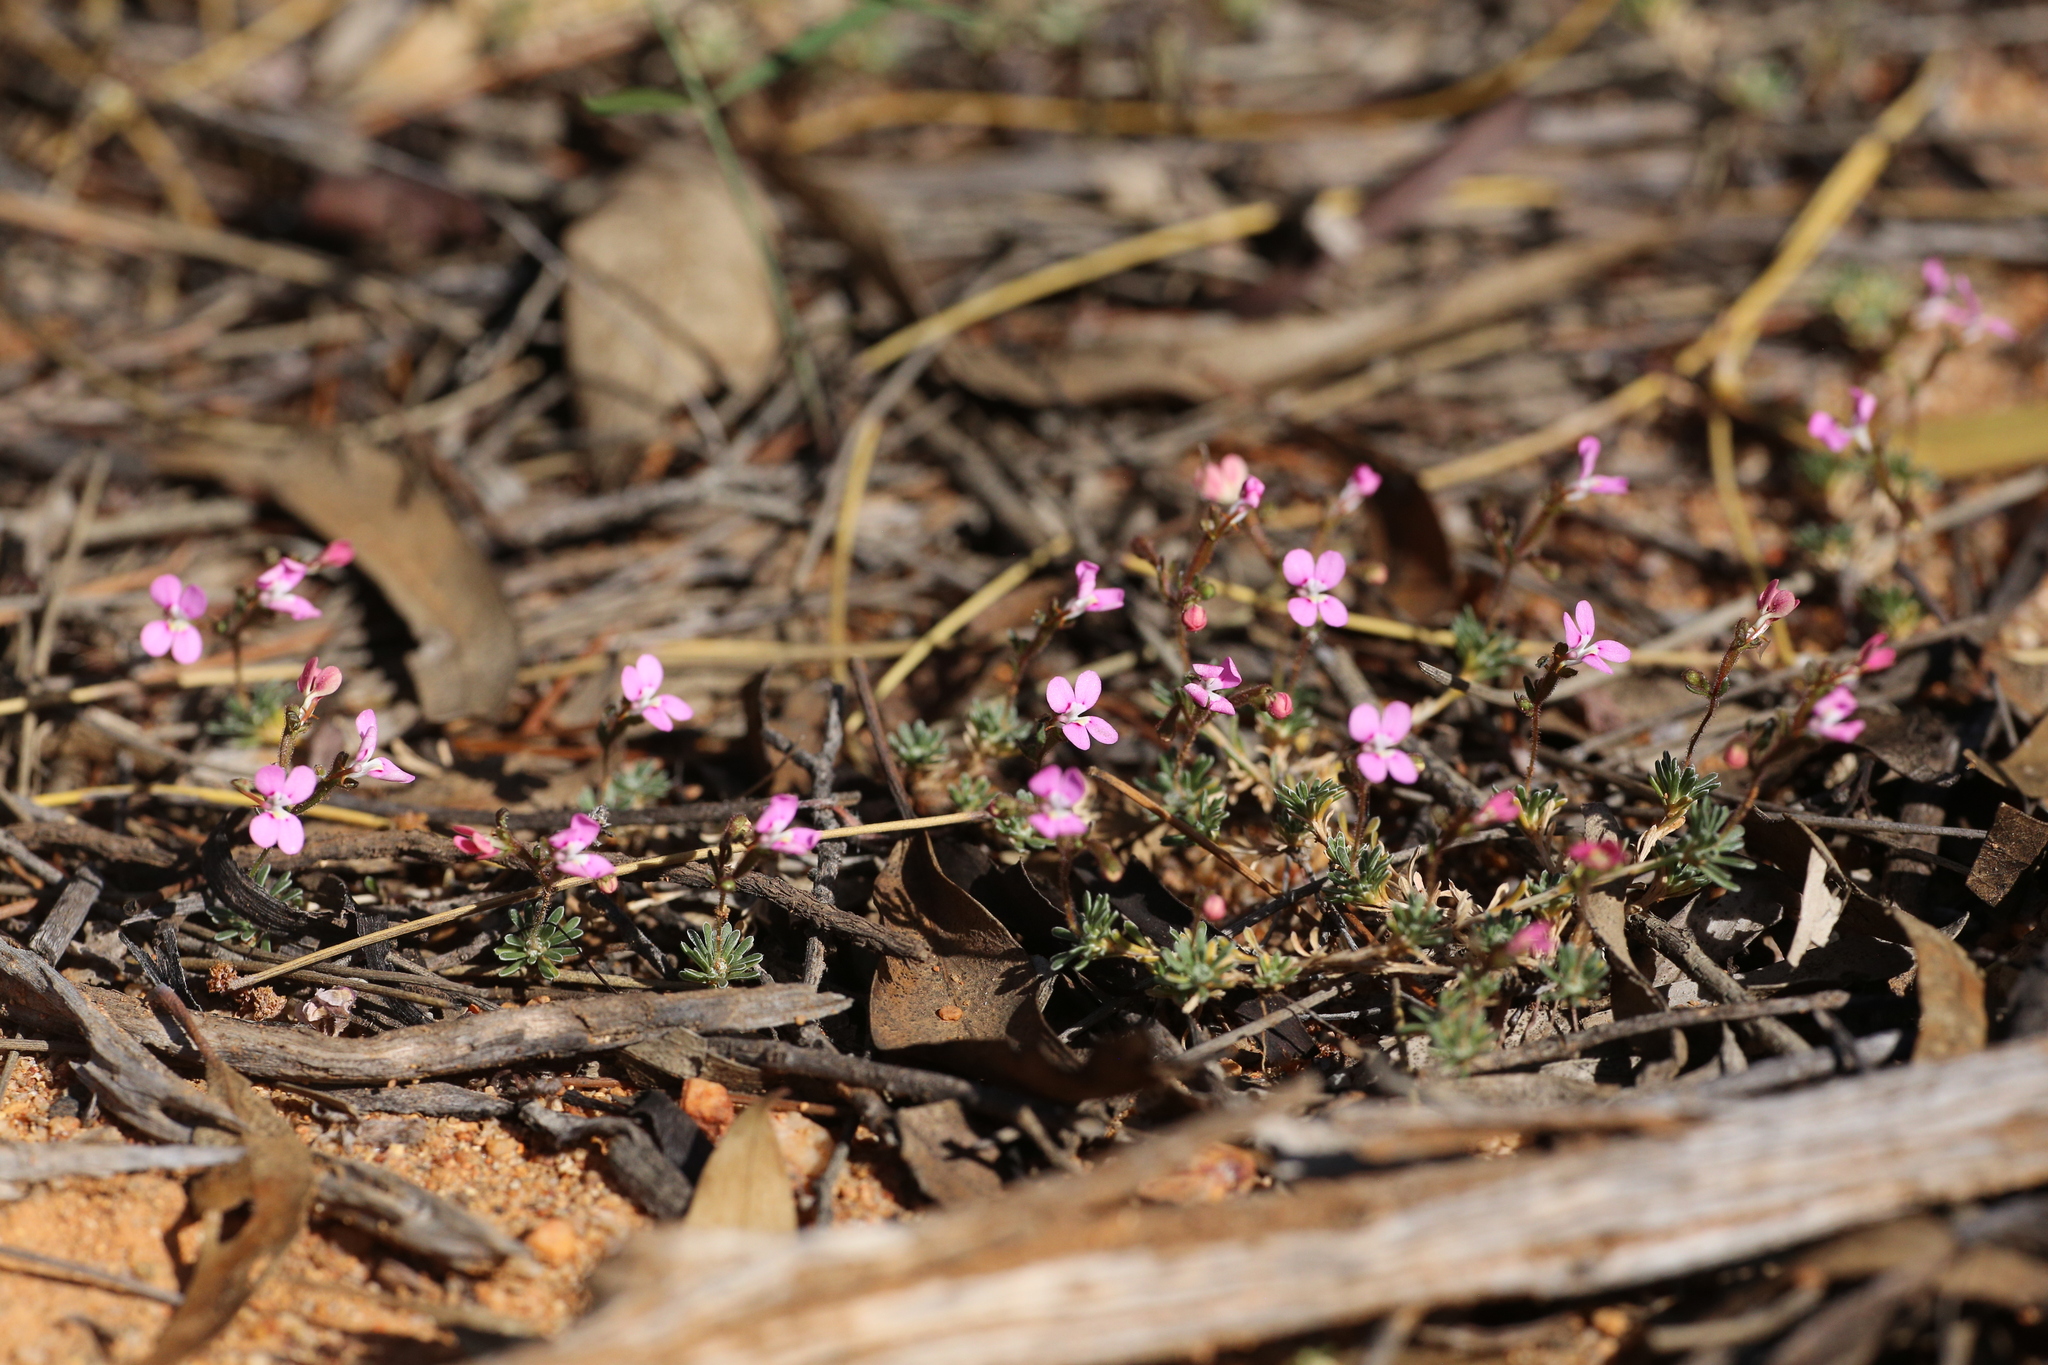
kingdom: Plantae
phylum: Tracheophyta
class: Magnoliopsida
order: Asterales
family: Stylidiaceae
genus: Stylidium
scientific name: Stylidium dielsianum
